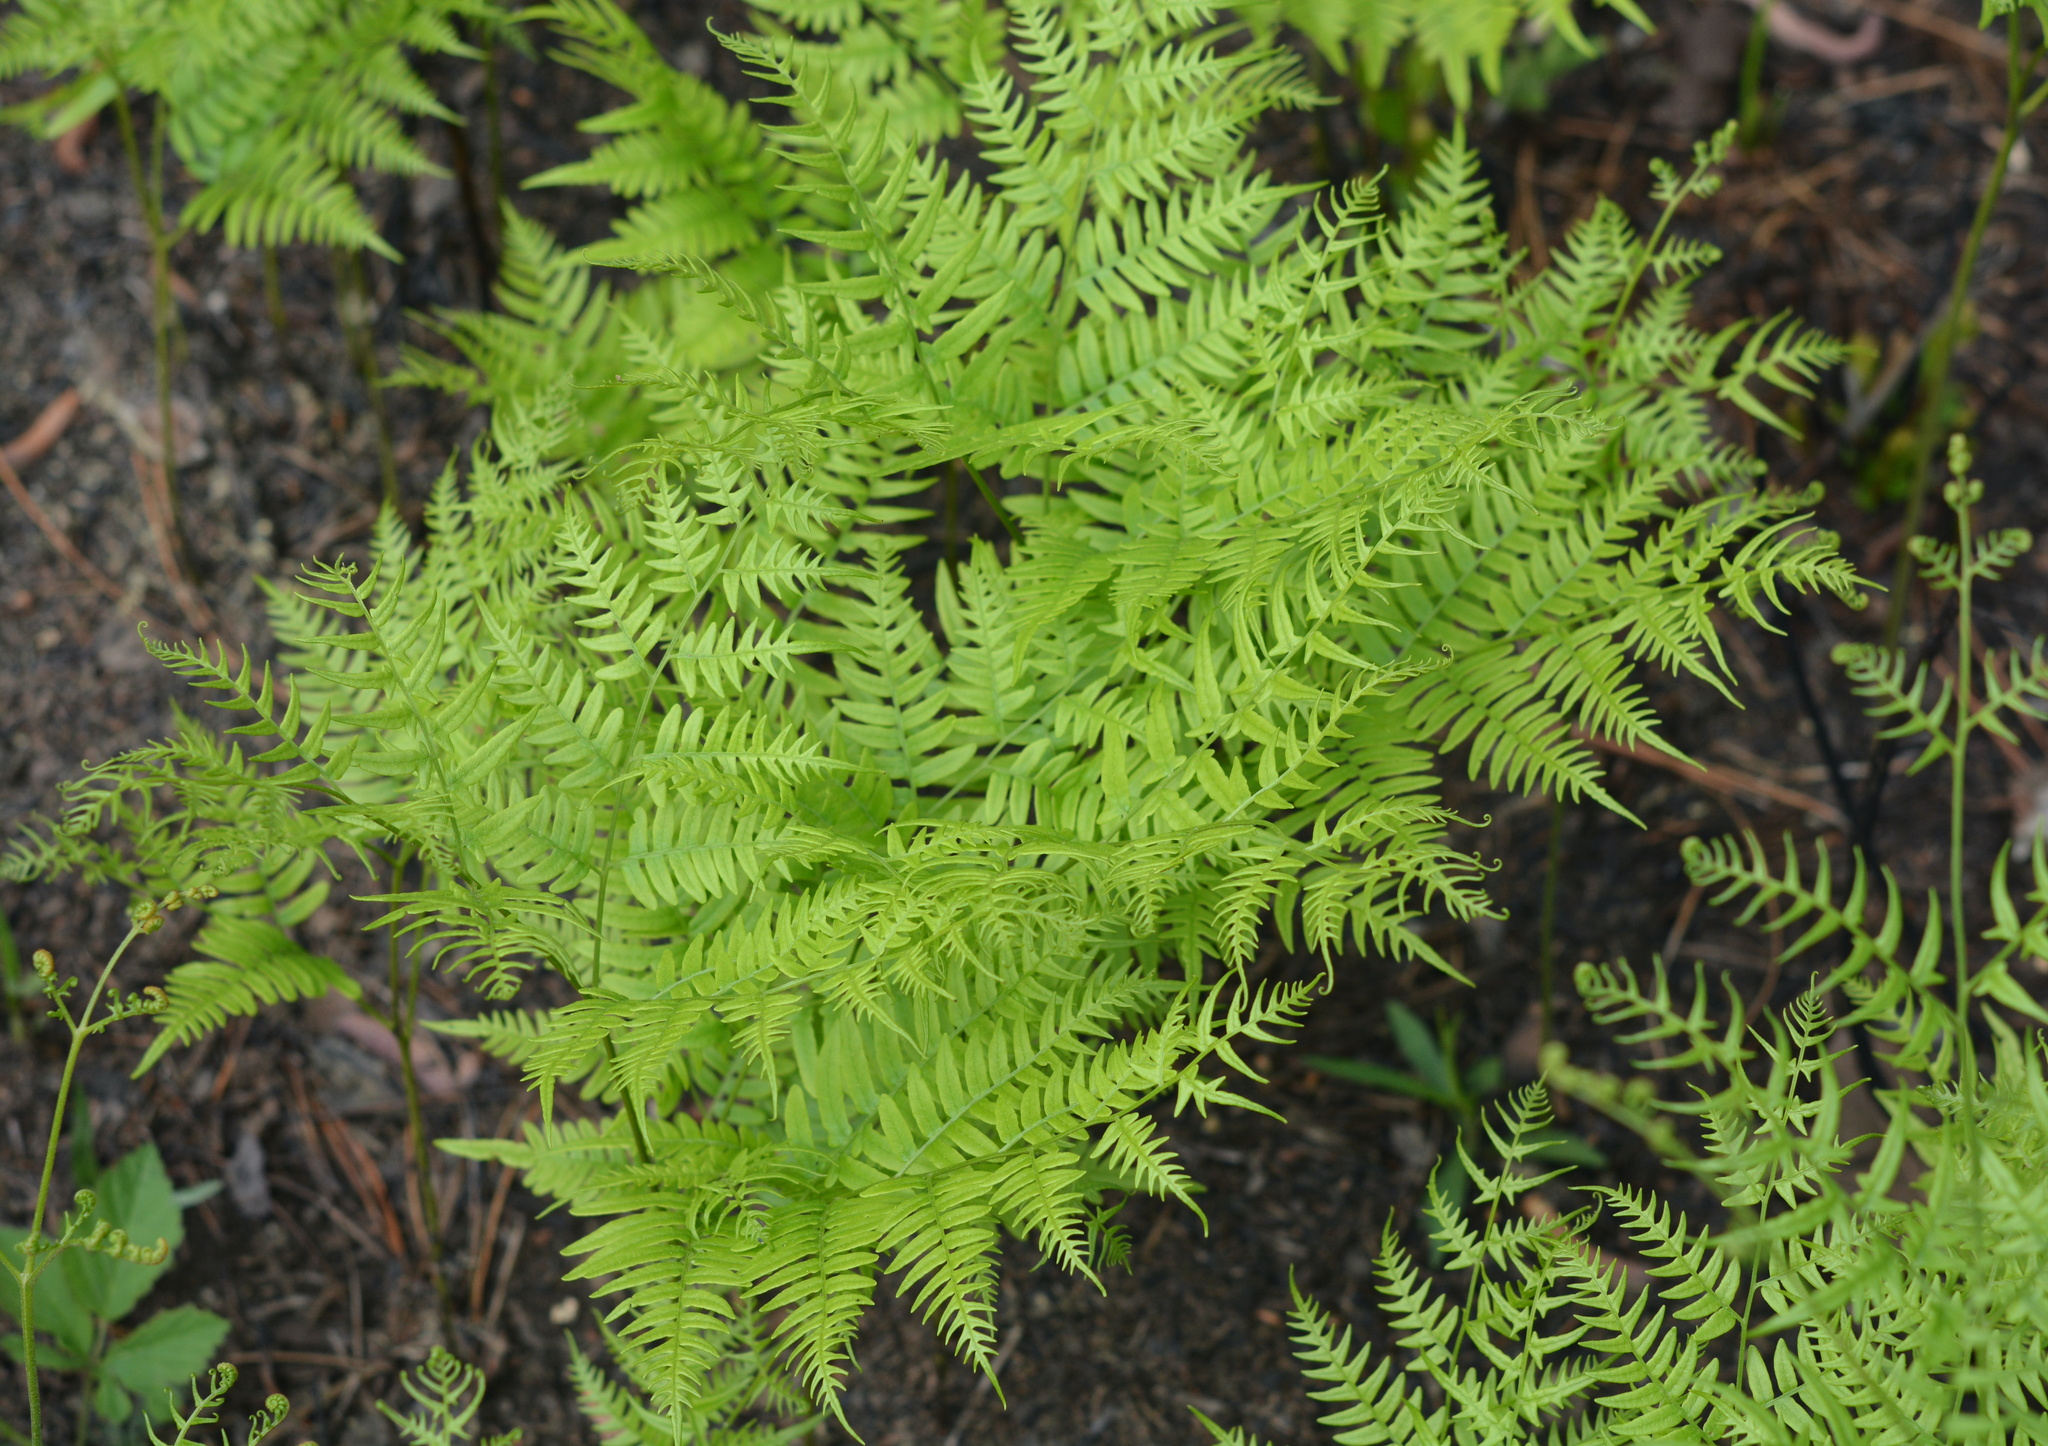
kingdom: Plantae
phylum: Tracheophyta
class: Polypodiopsida
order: Polypodiales
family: Dennstaedtiaceae
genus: Pteridium
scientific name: Pteridium aquilinum
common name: Bracken
